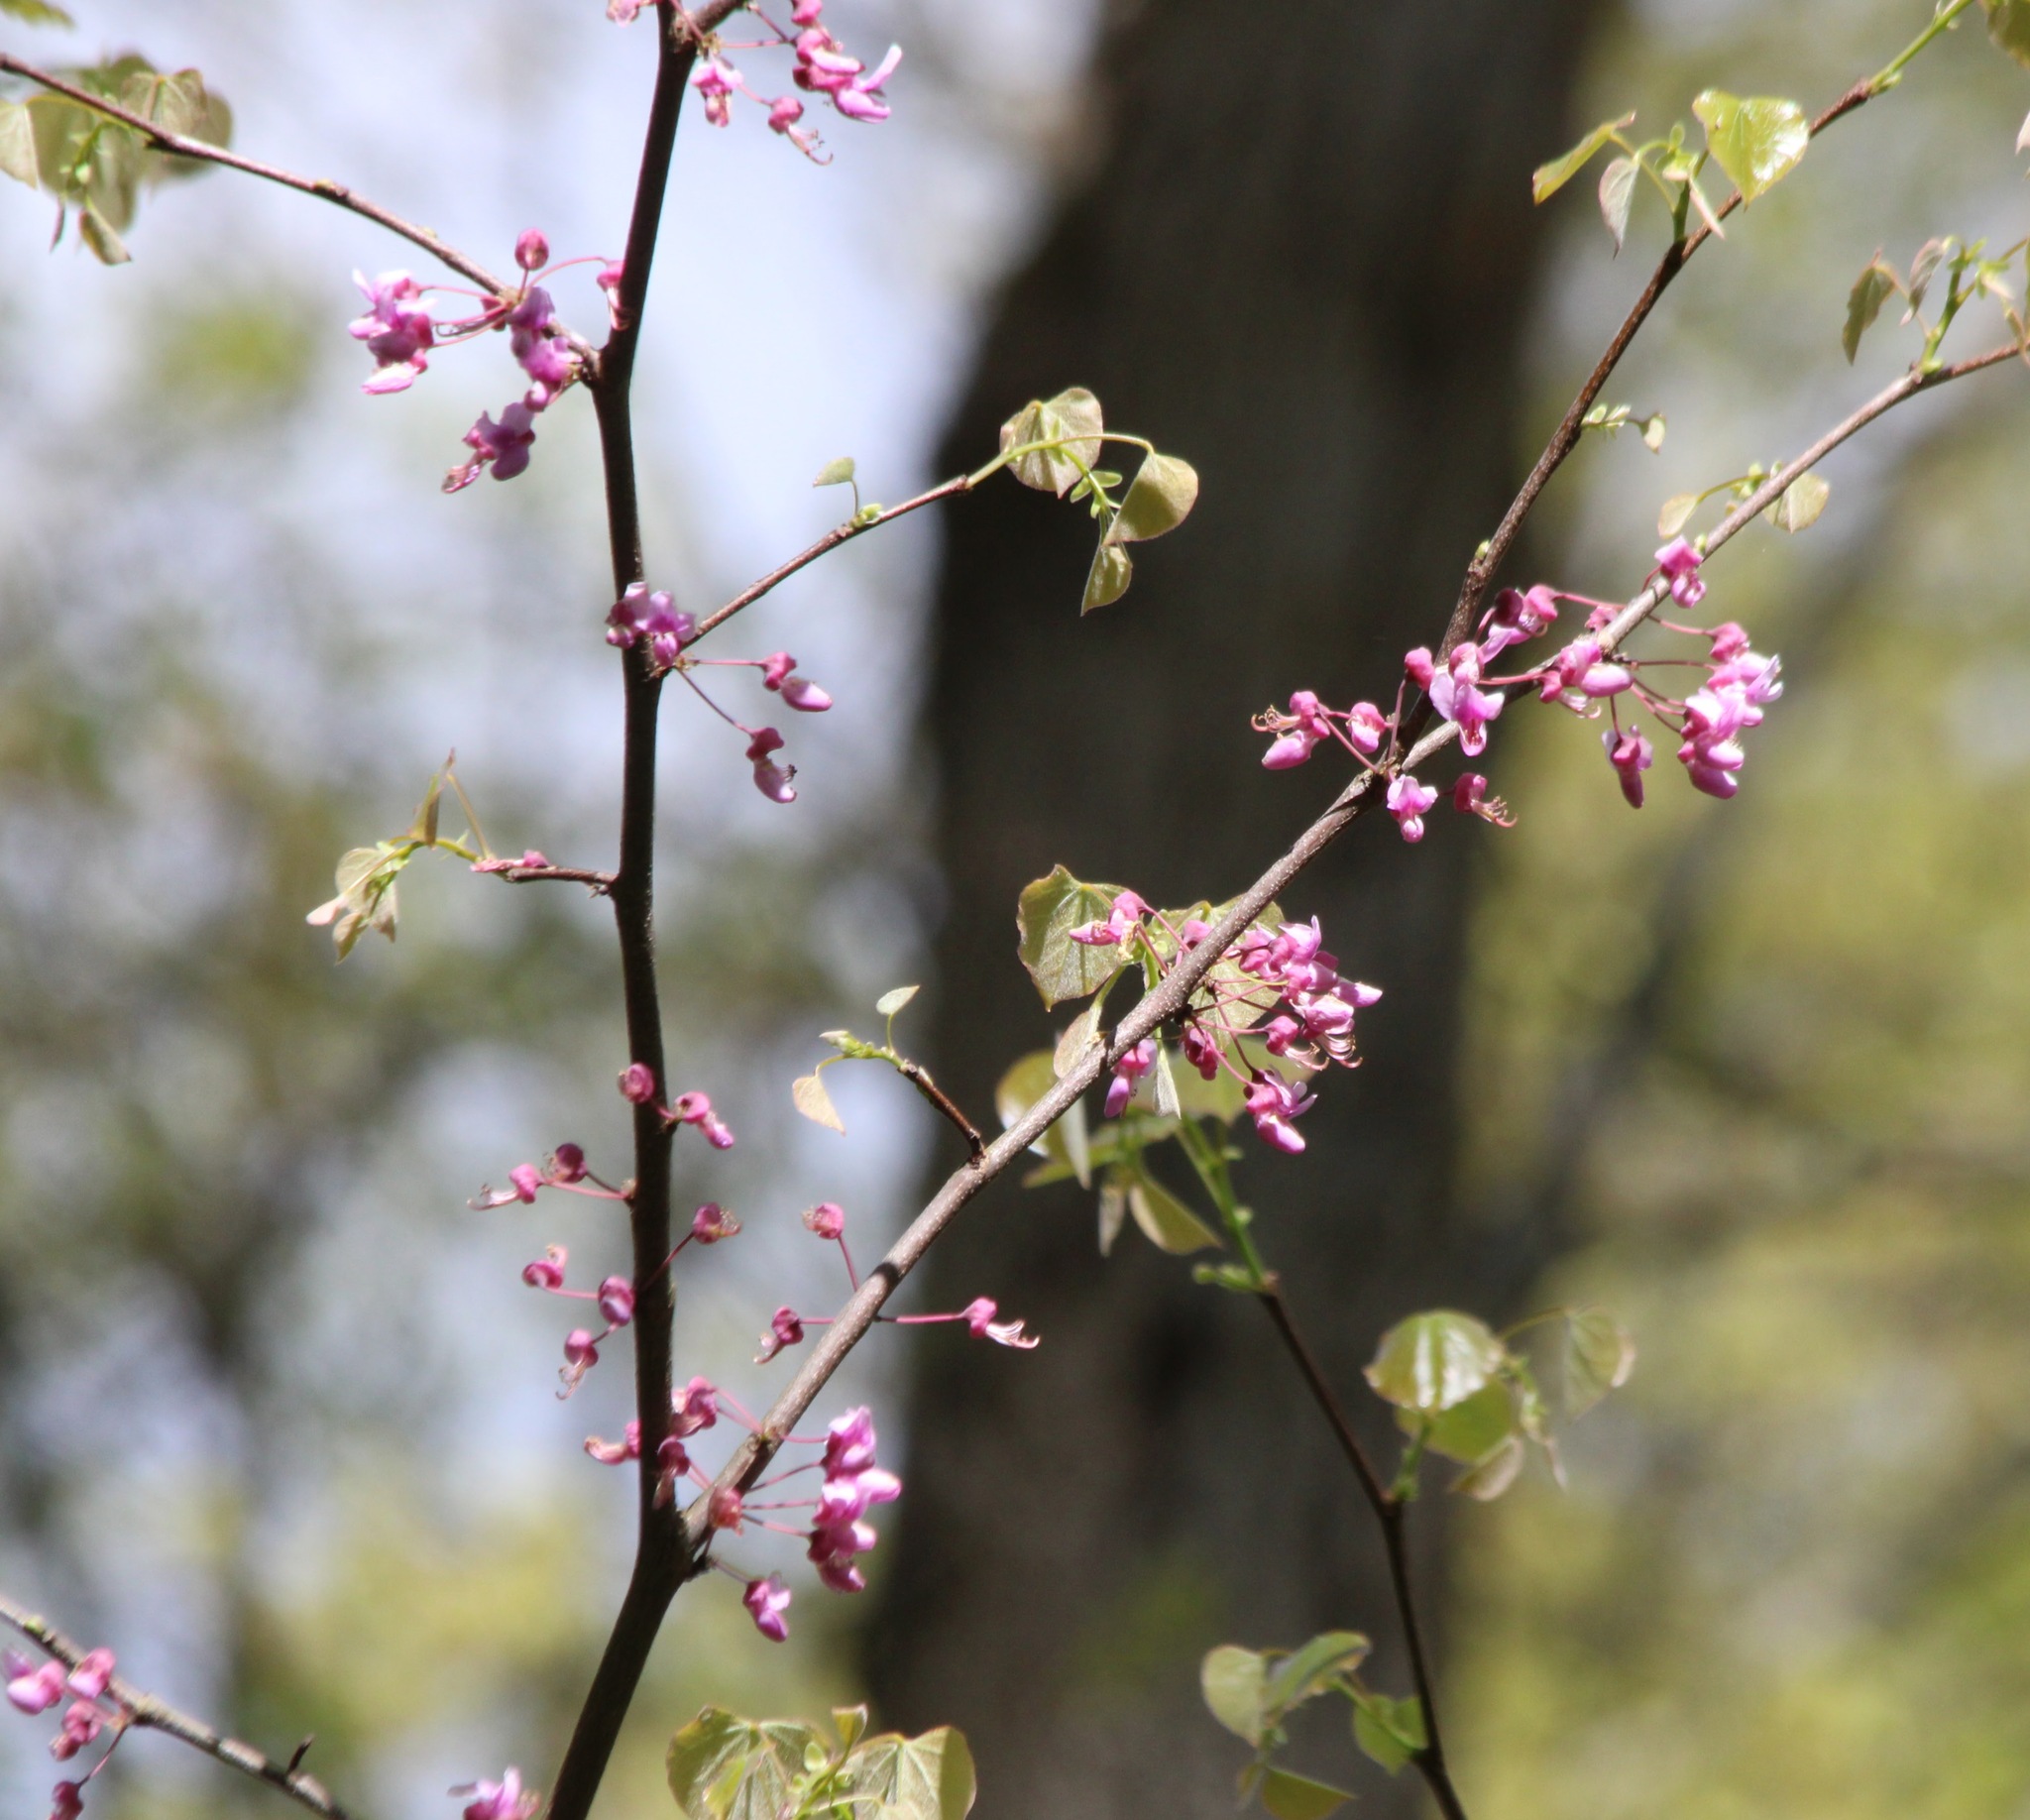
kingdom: Plantae
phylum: Tracheophyta
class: Magnoliopsida
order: Fabales
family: Fabaceae
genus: Cercis
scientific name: Cercis canadensis
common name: Eastern redbud
